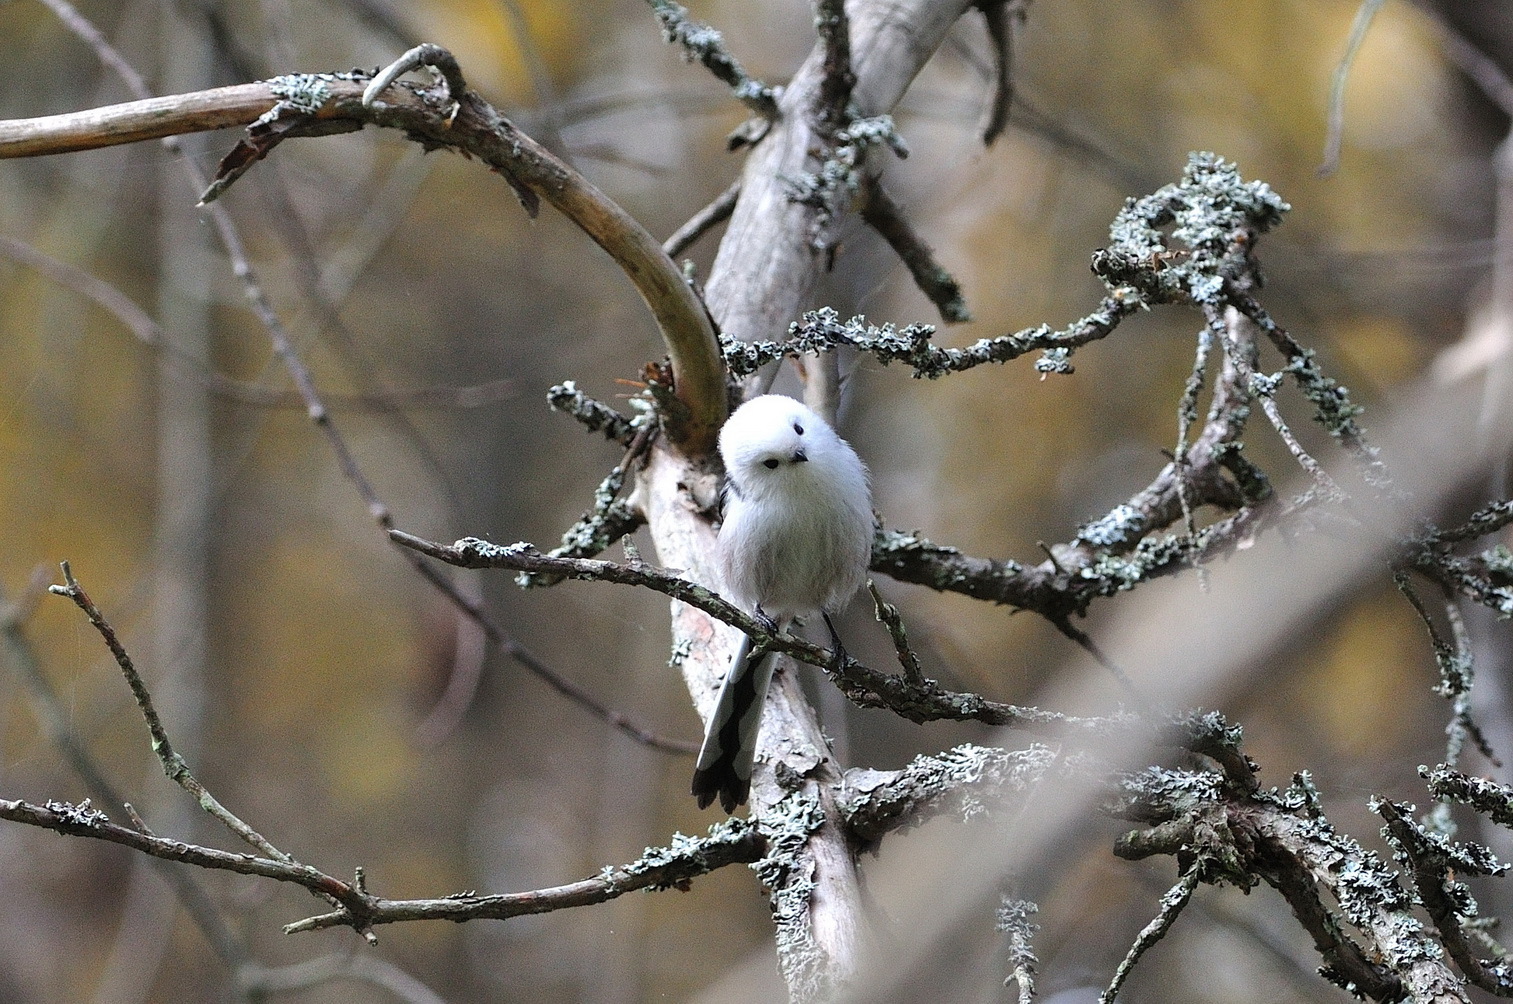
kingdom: Animalia
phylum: Chordata
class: Aves
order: Passeriformes
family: Aegithalidae
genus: Aegithalos
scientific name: Aegithalos caudatus
